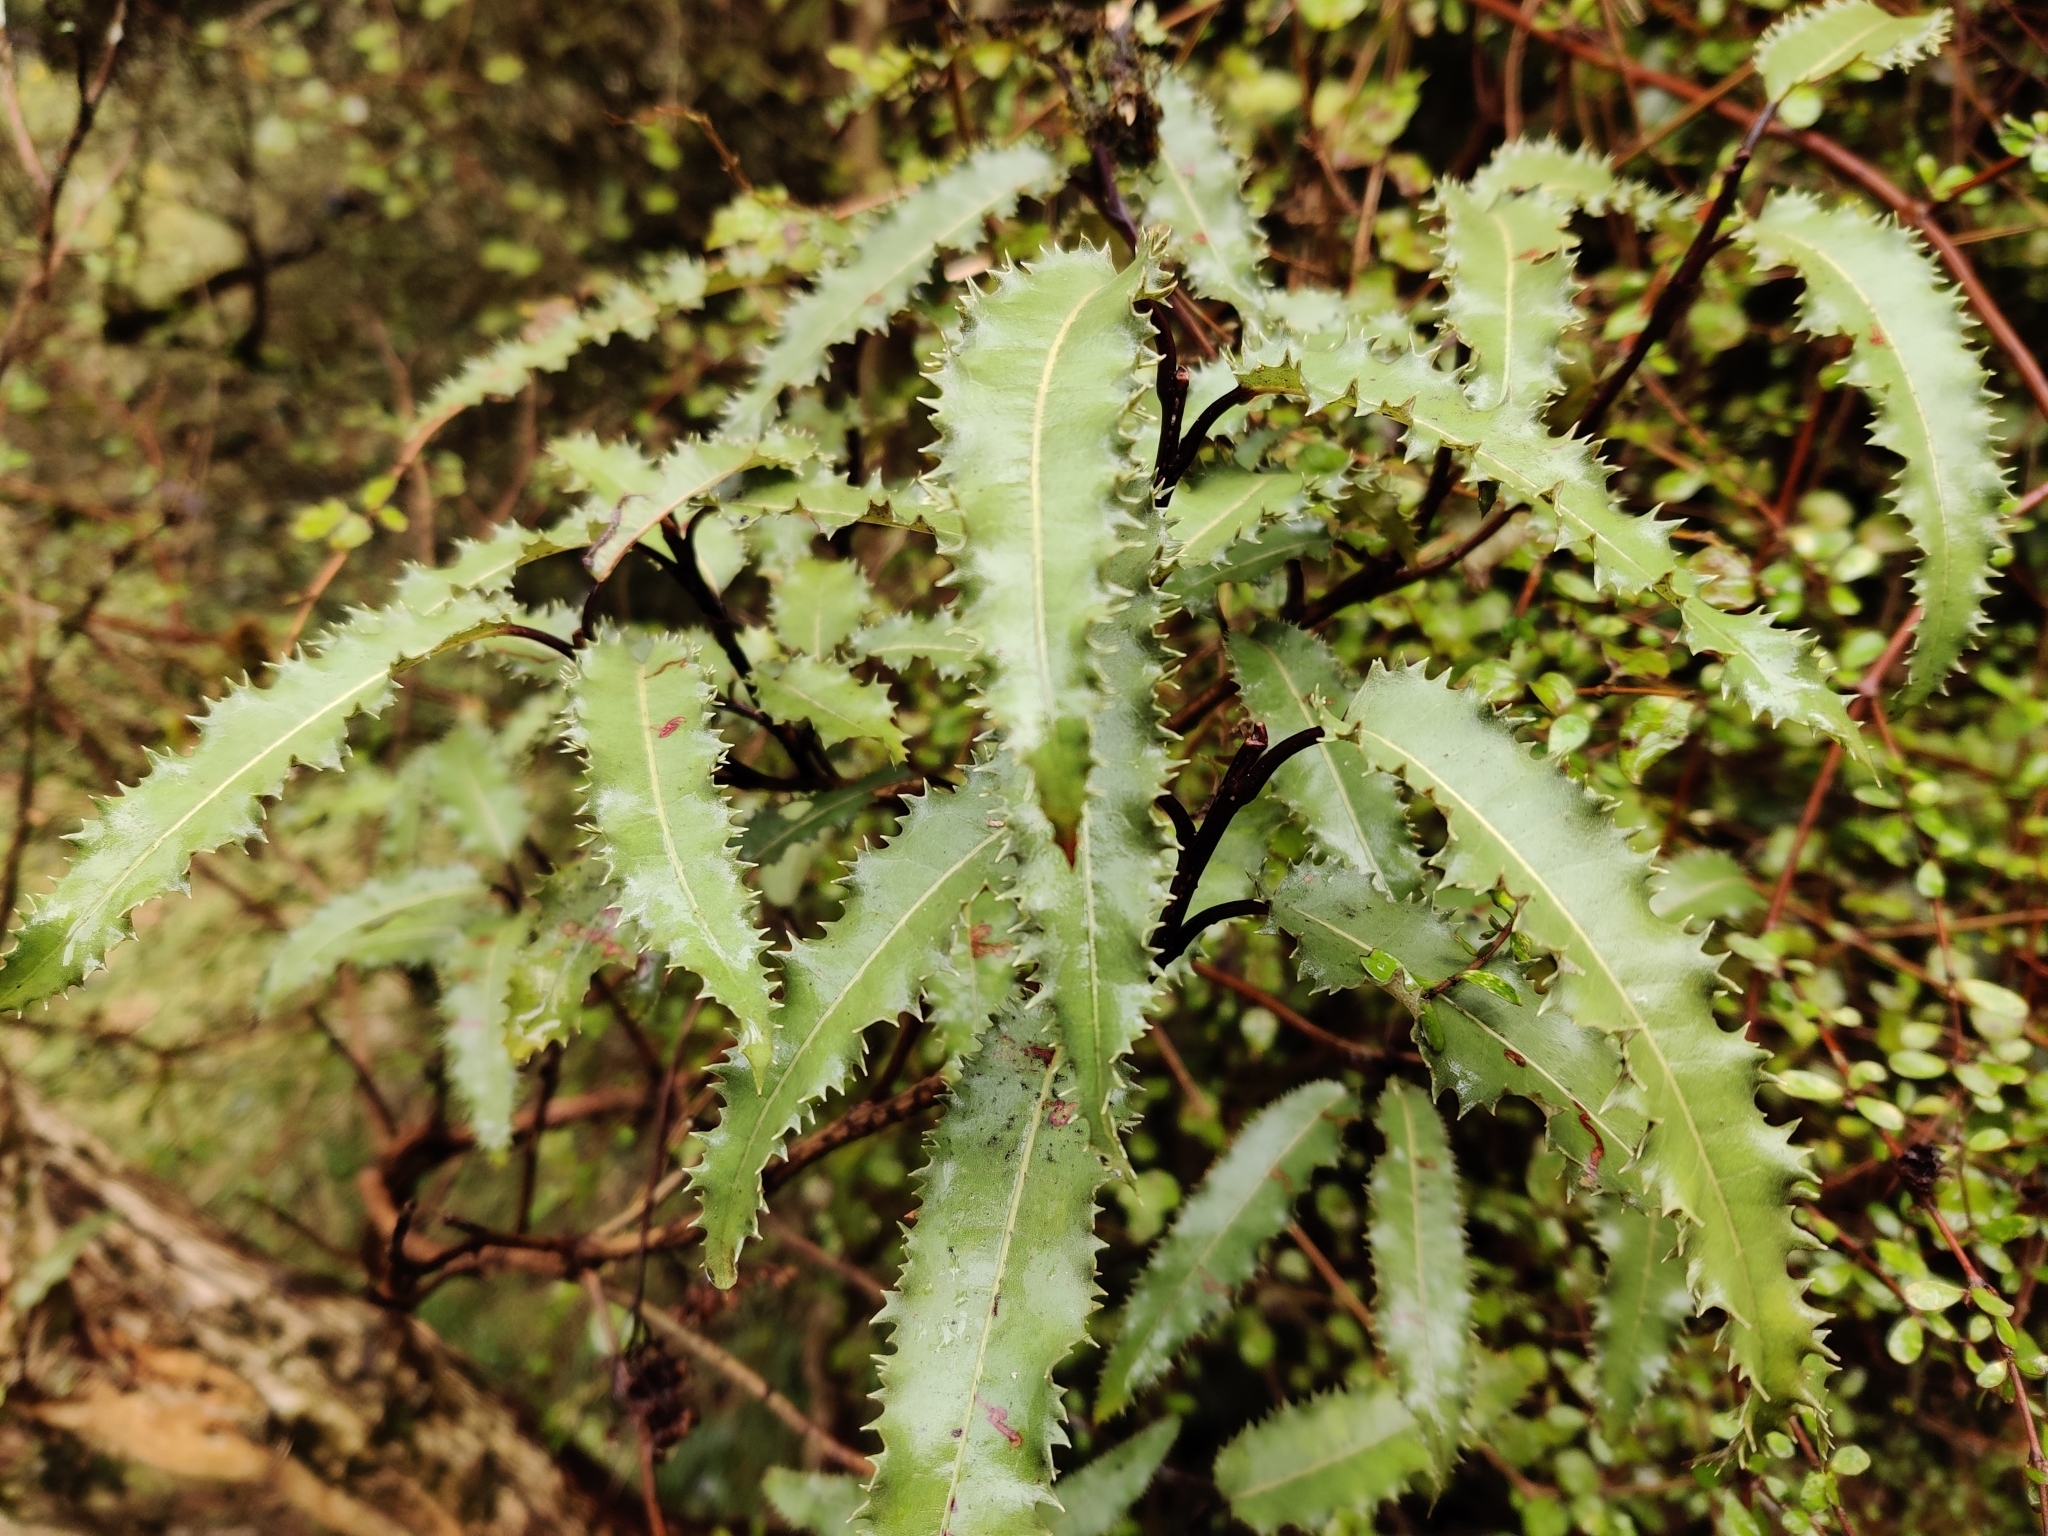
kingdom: Plantae
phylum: Tracheophyta
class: Magnoliopsida
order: Asterales
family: Asteraceae
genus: Olearia
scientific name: Olearia ilicifolia
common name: Maori-holly
